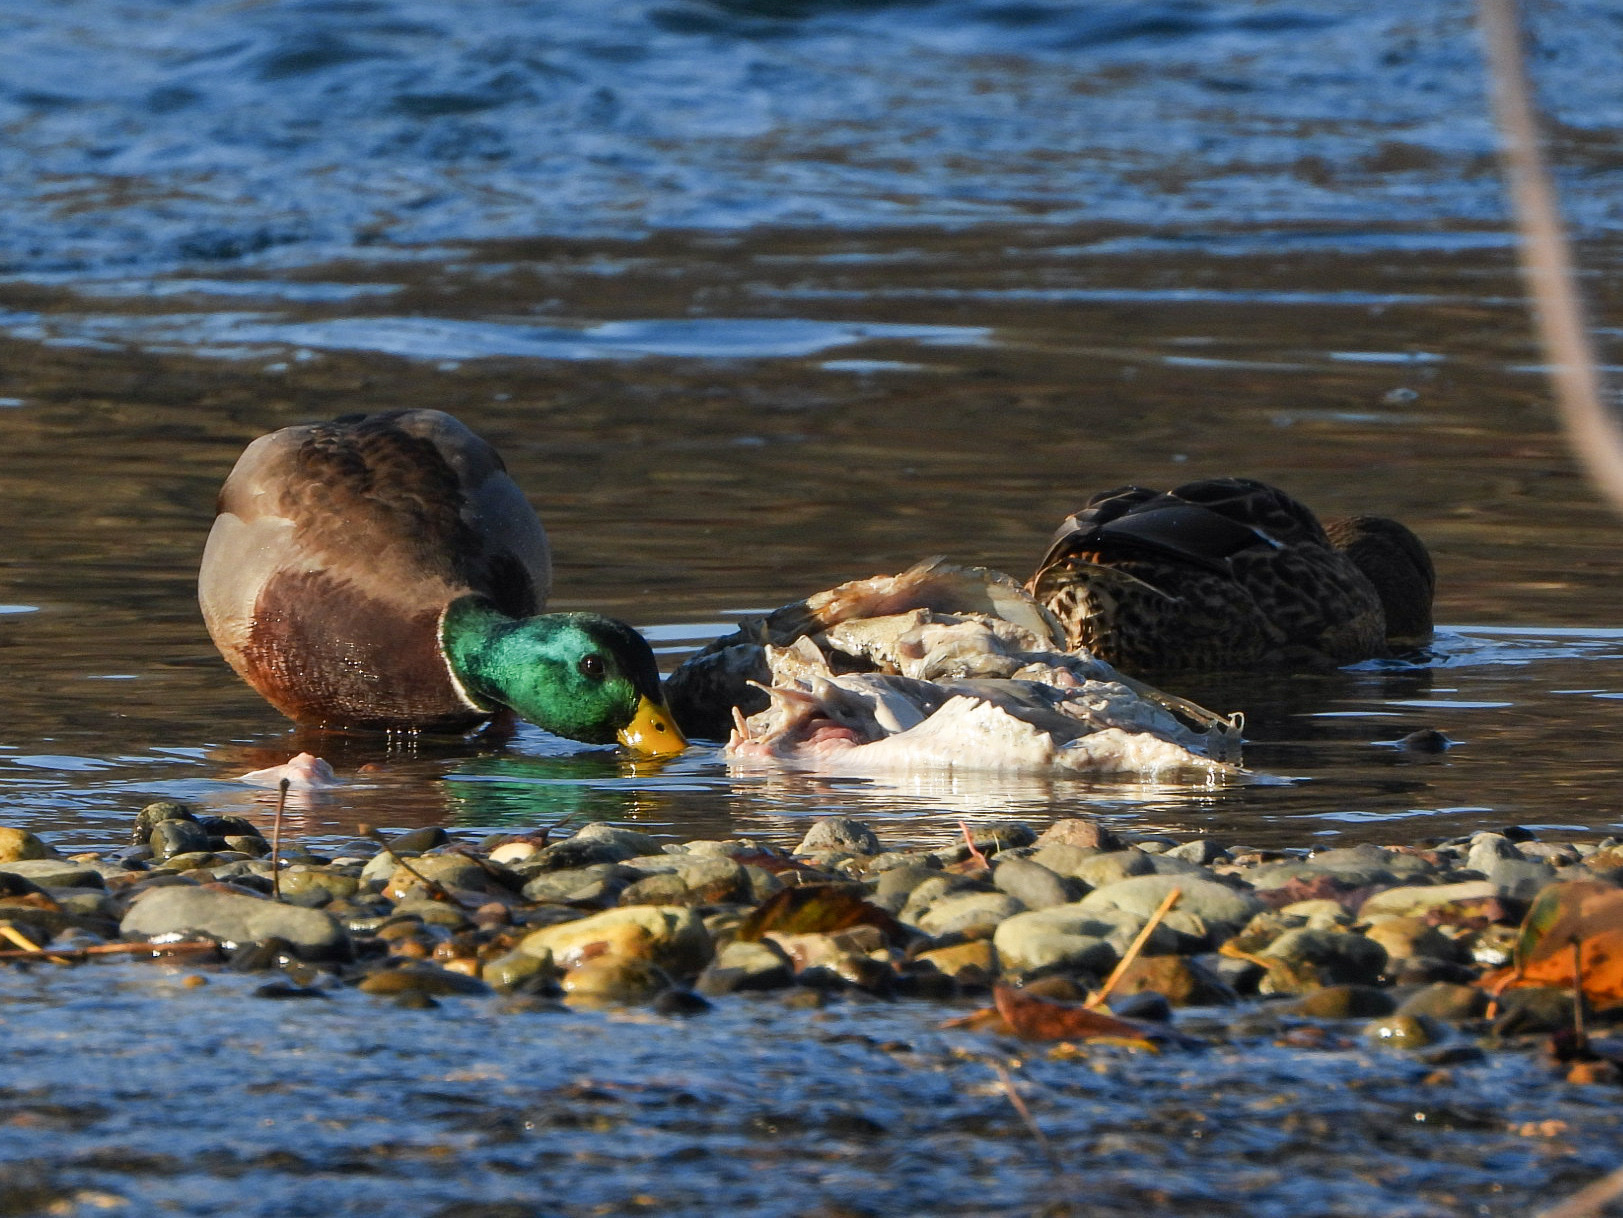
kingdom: Animalia
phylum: Chordata
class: Aves
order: Anseriformes
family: Anatidae
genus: Anas
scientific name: Anas platyrhynchos
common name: Mallard
